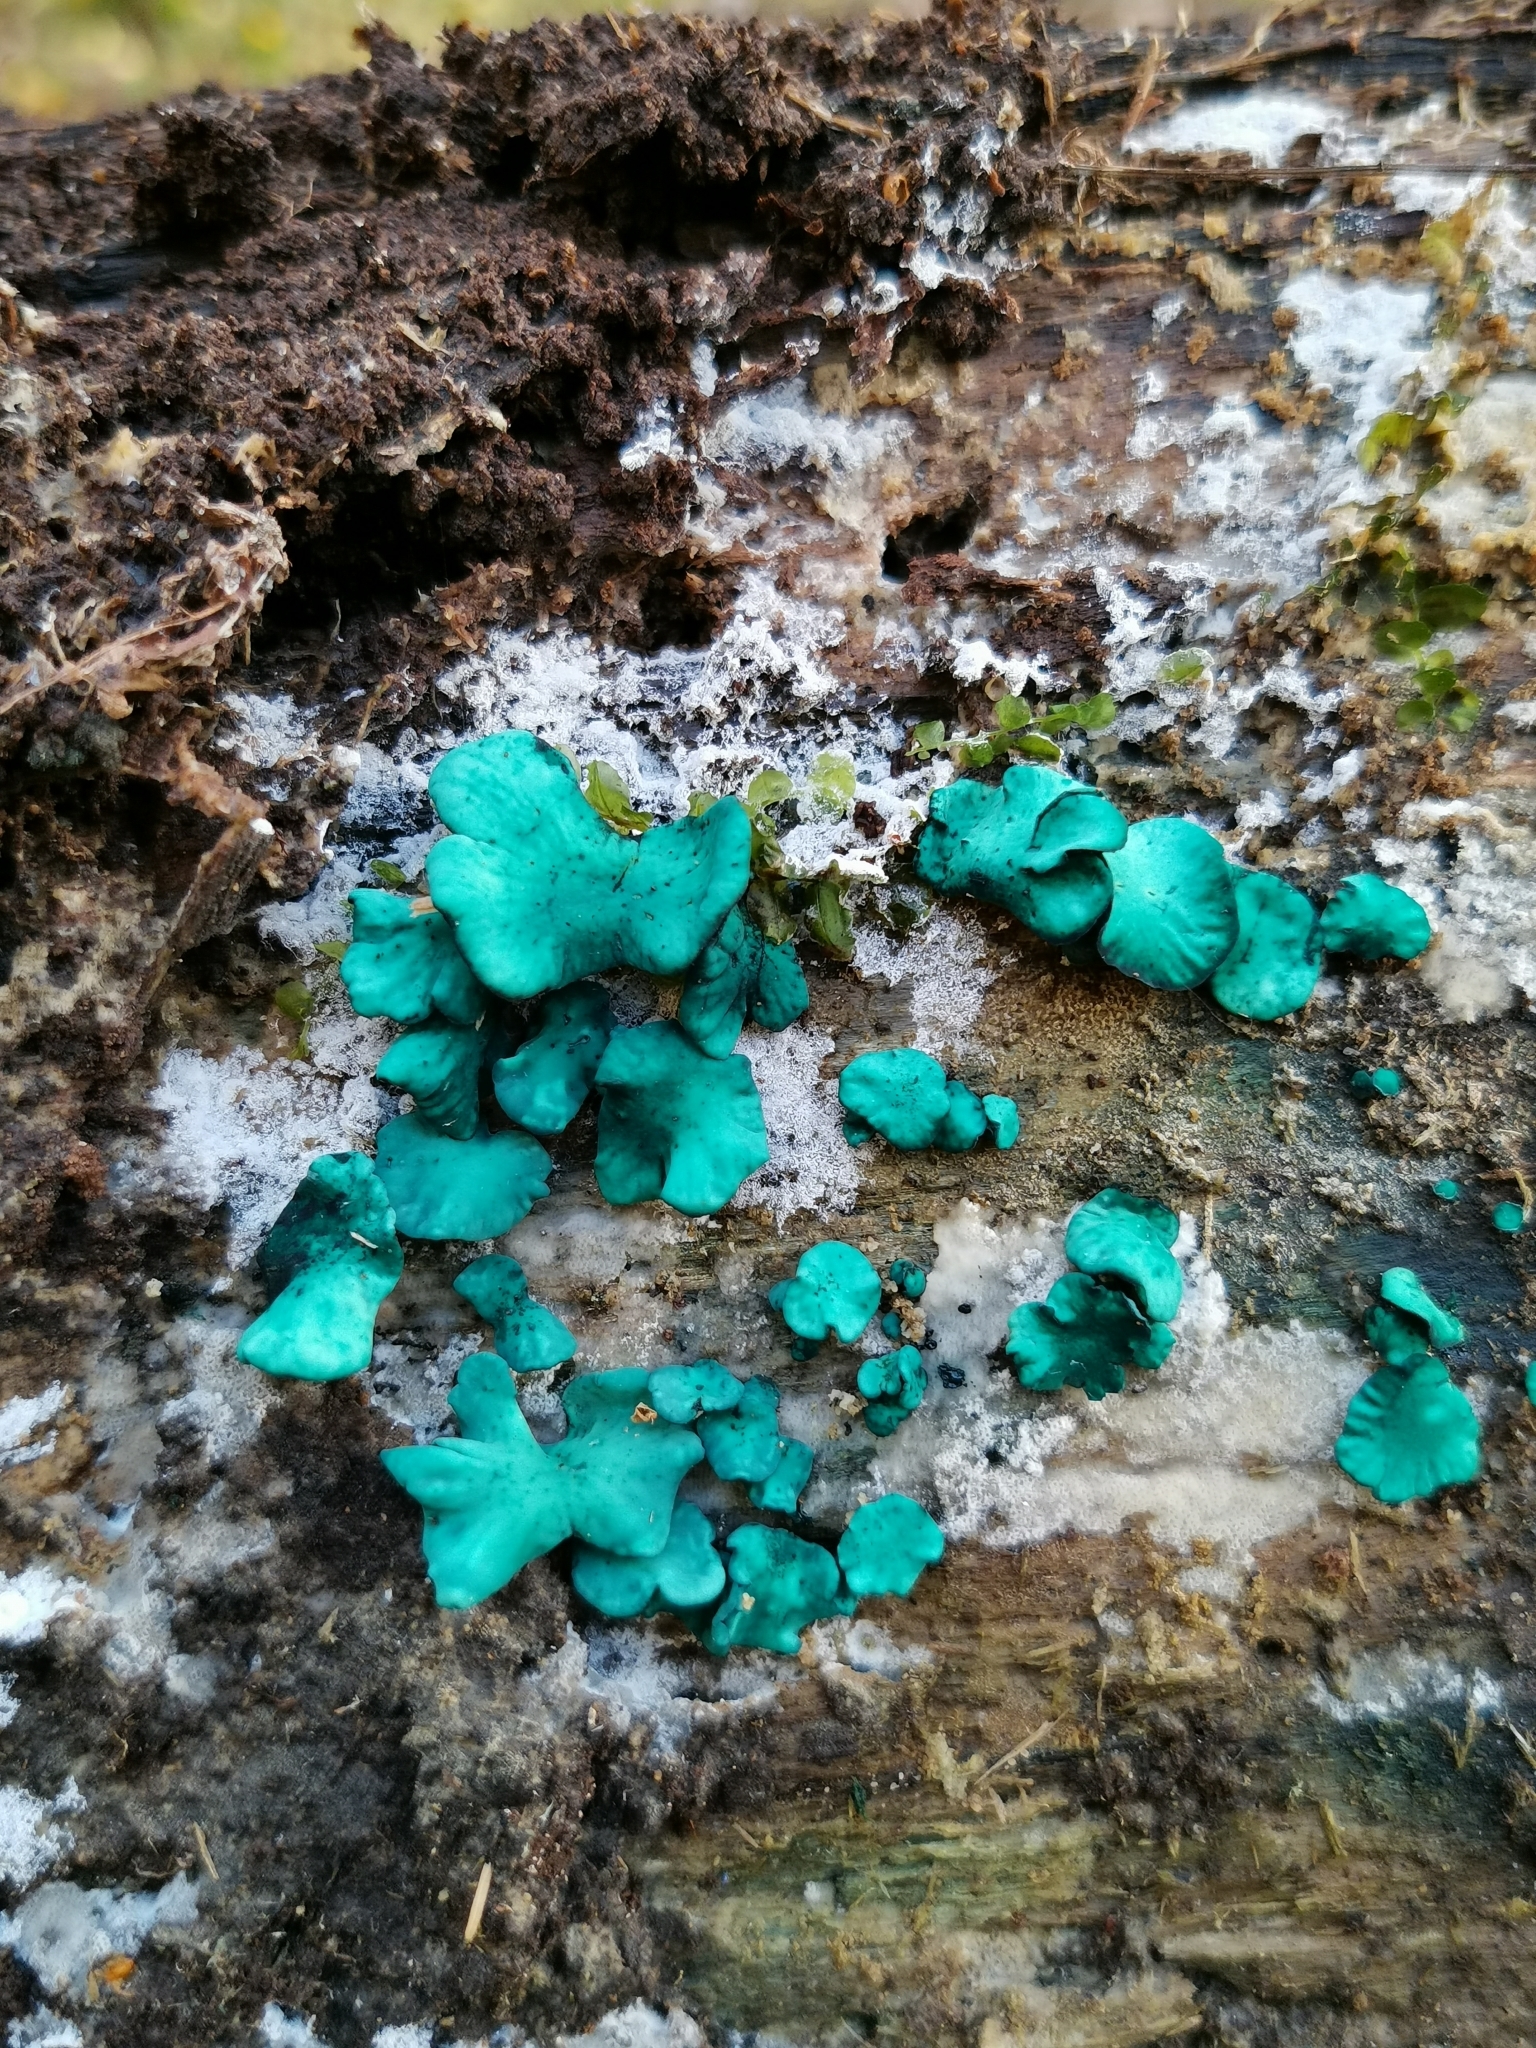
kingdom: Fungi
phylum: Ascomycota
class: Leotiomycetes
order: Helotiales
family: Chlorociboriaceae
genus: Chlorociboria
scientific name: Chlorociboria aeruginascens
